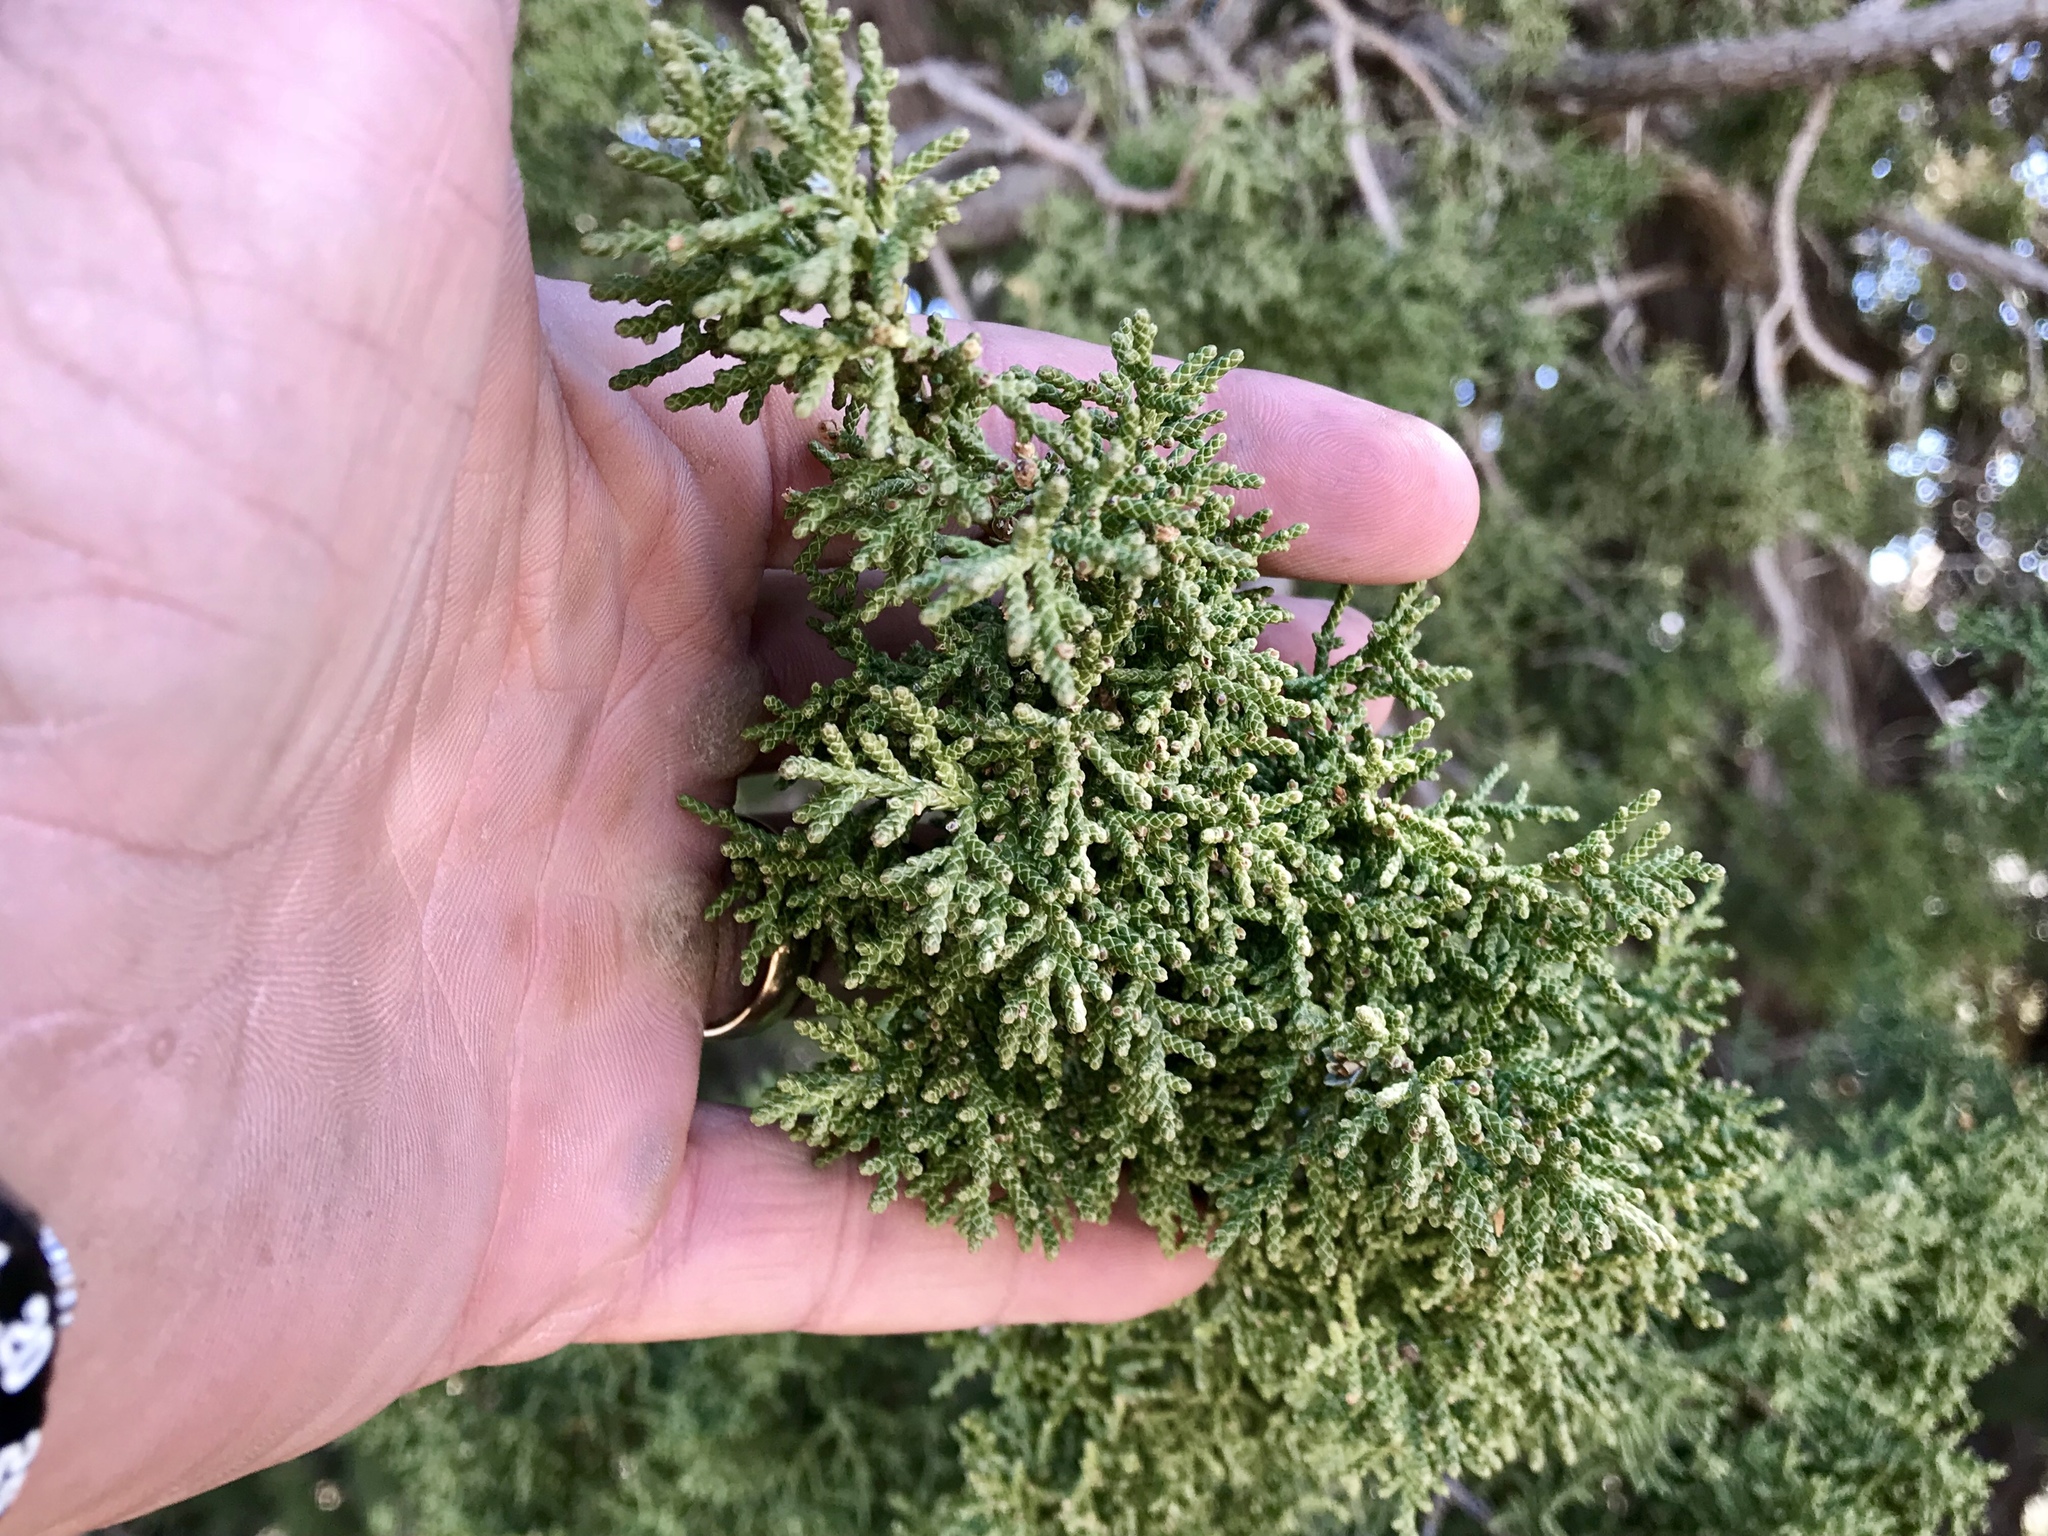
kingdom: Plantae
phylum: Tracheophyta
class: Pinopsida
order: Pinales
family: Cupressaceae
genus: Juniperus
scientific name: Juniperus monosperma
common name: One-seed juniper
